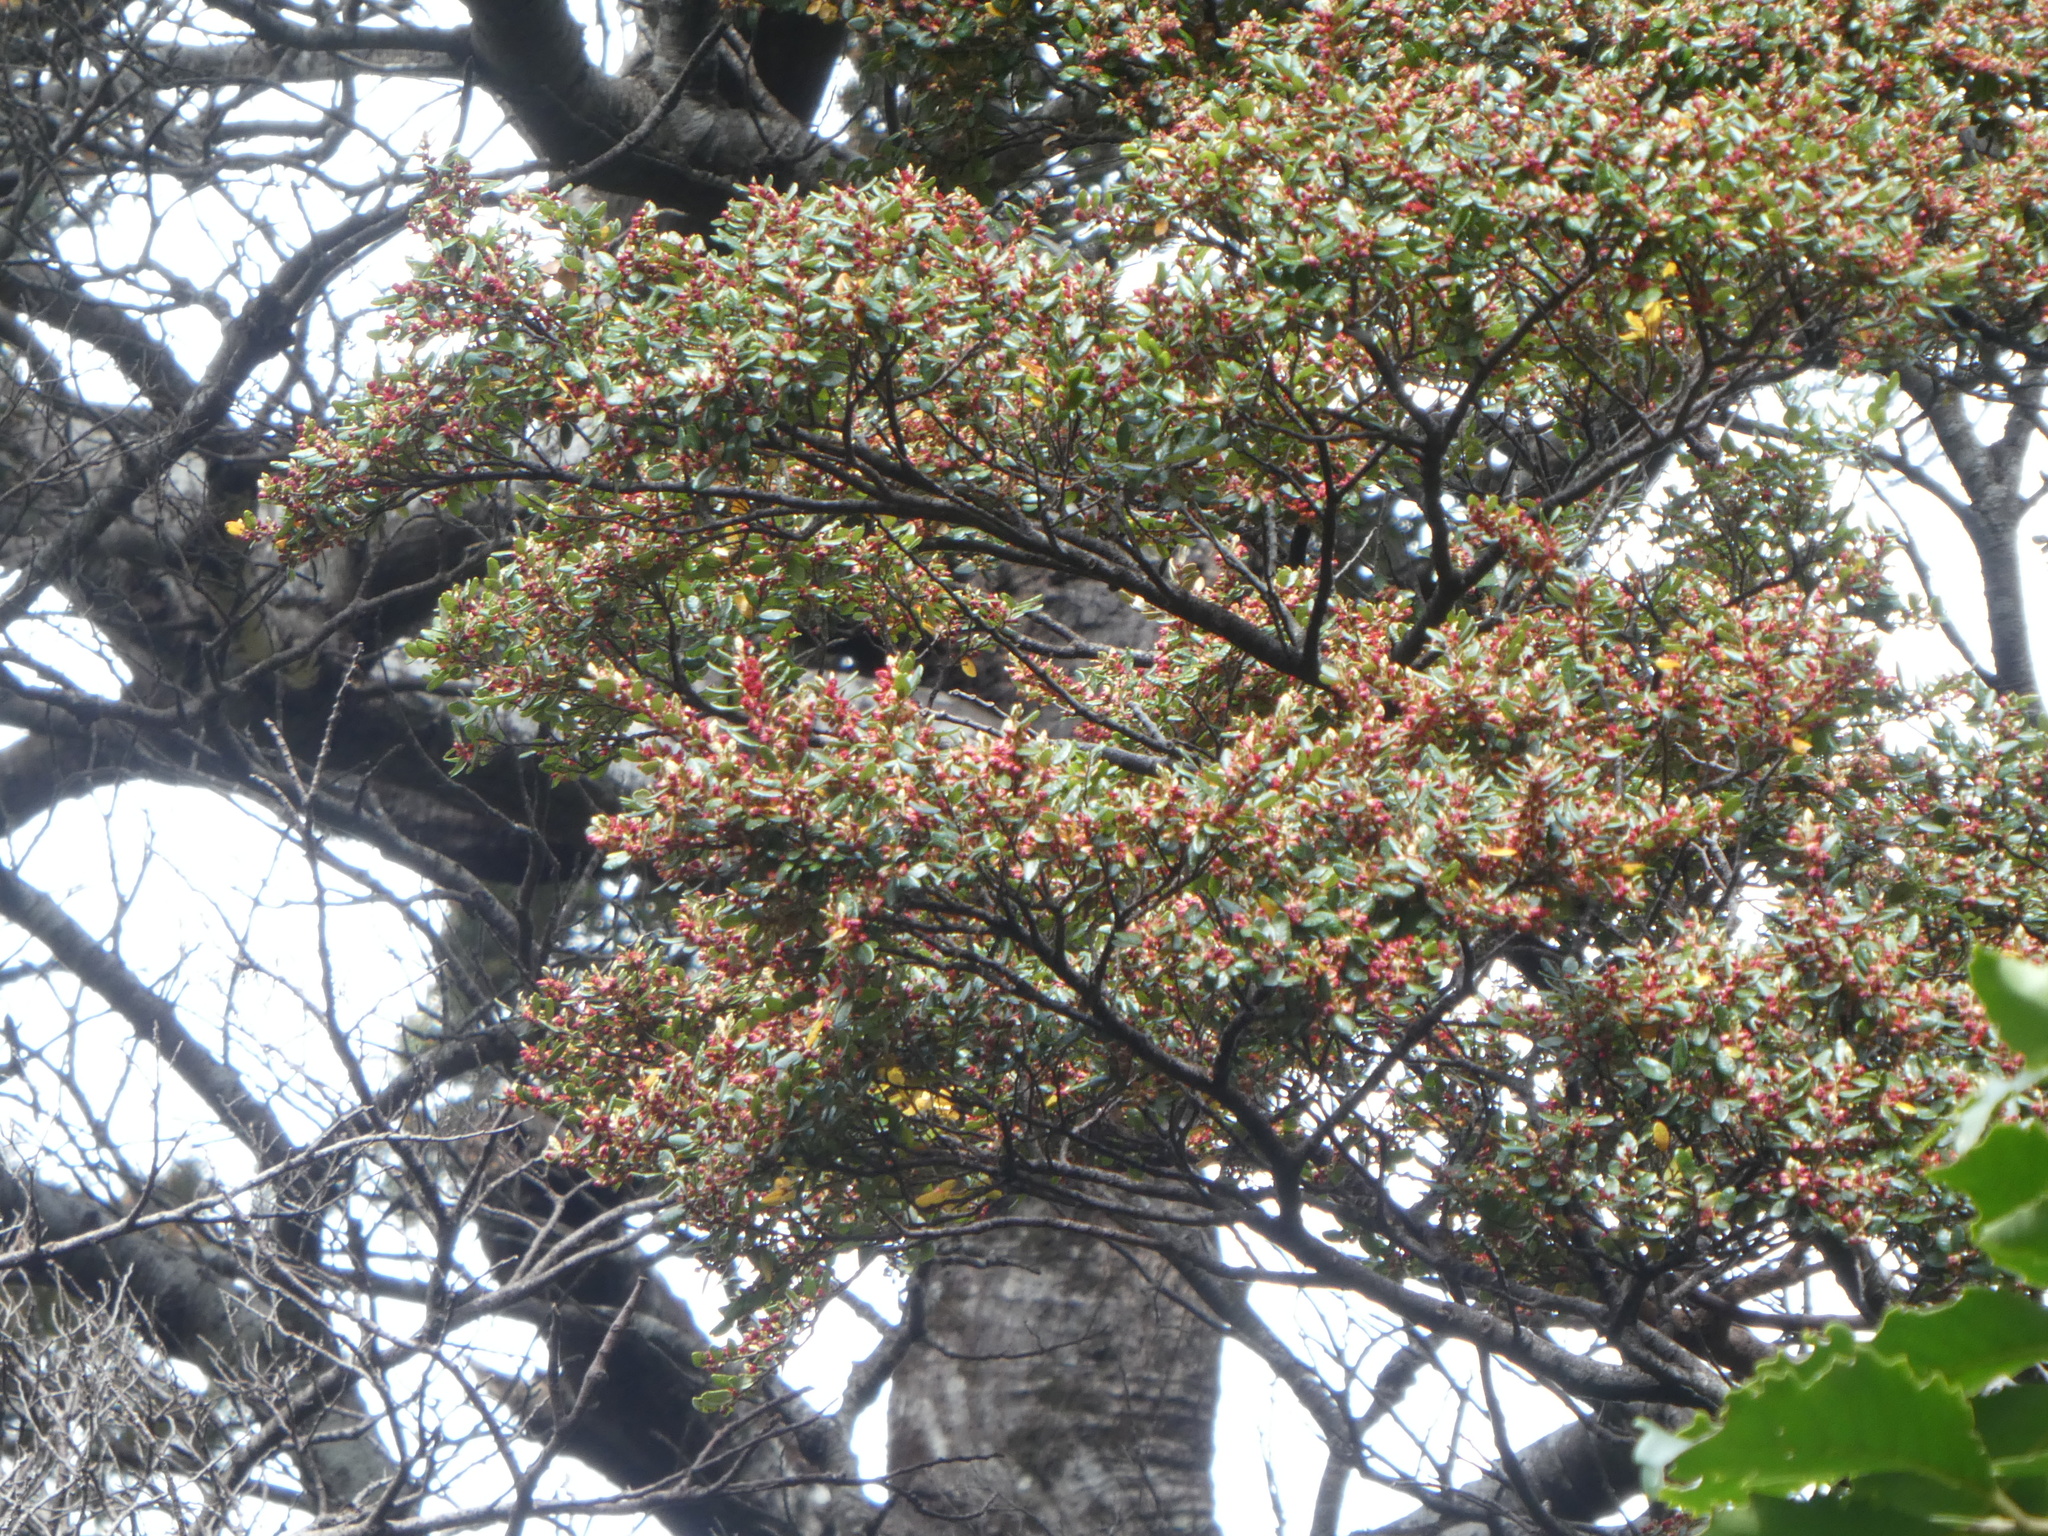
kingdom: Plantae
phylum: Tracheophyta
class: Magnoliopsida
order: Fagales
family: Nothofagaceae
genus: Nothofagus
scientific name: Nothofagus solandri
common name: Black beech
